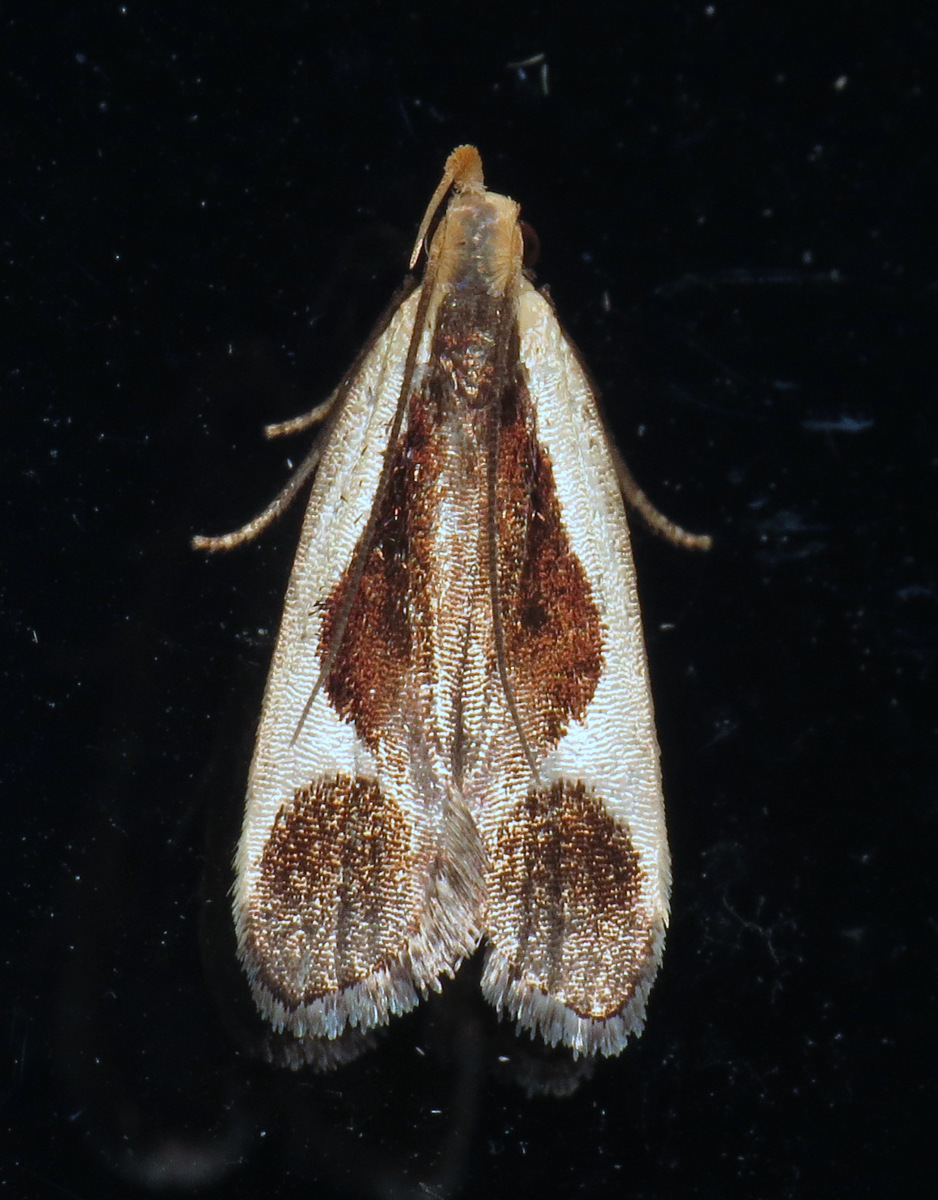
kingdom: Animalia
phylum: Arthropoda
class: Insecta
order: Lepidoptera
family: Gelechiidae
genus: Dichomeris
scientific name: Dichomeris flavocostella
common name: Cream-edged dichomeris moth
